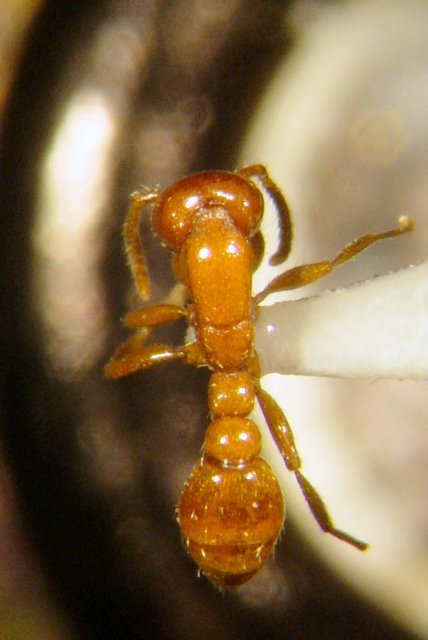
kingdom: Animalia
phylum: Arthropoda
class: Insecta
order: Hymenoptera
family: Formicidae
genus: Neivamyrmex
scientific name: Neivamyrmex leonardi
